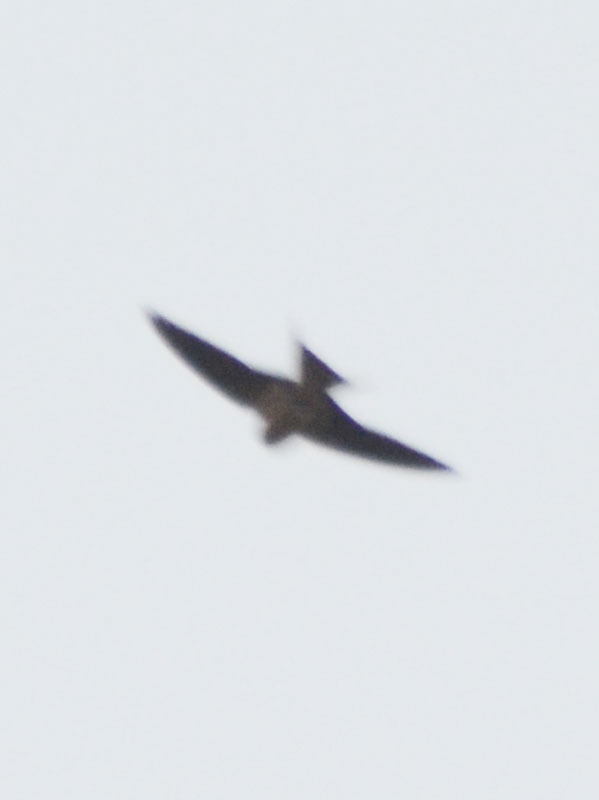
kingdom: Animalia
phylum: Chordata
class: Aves
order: Passeriformes
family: Hirundinidae
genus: Hirundo
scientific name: Hirundo rustica
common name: Barn swallow
